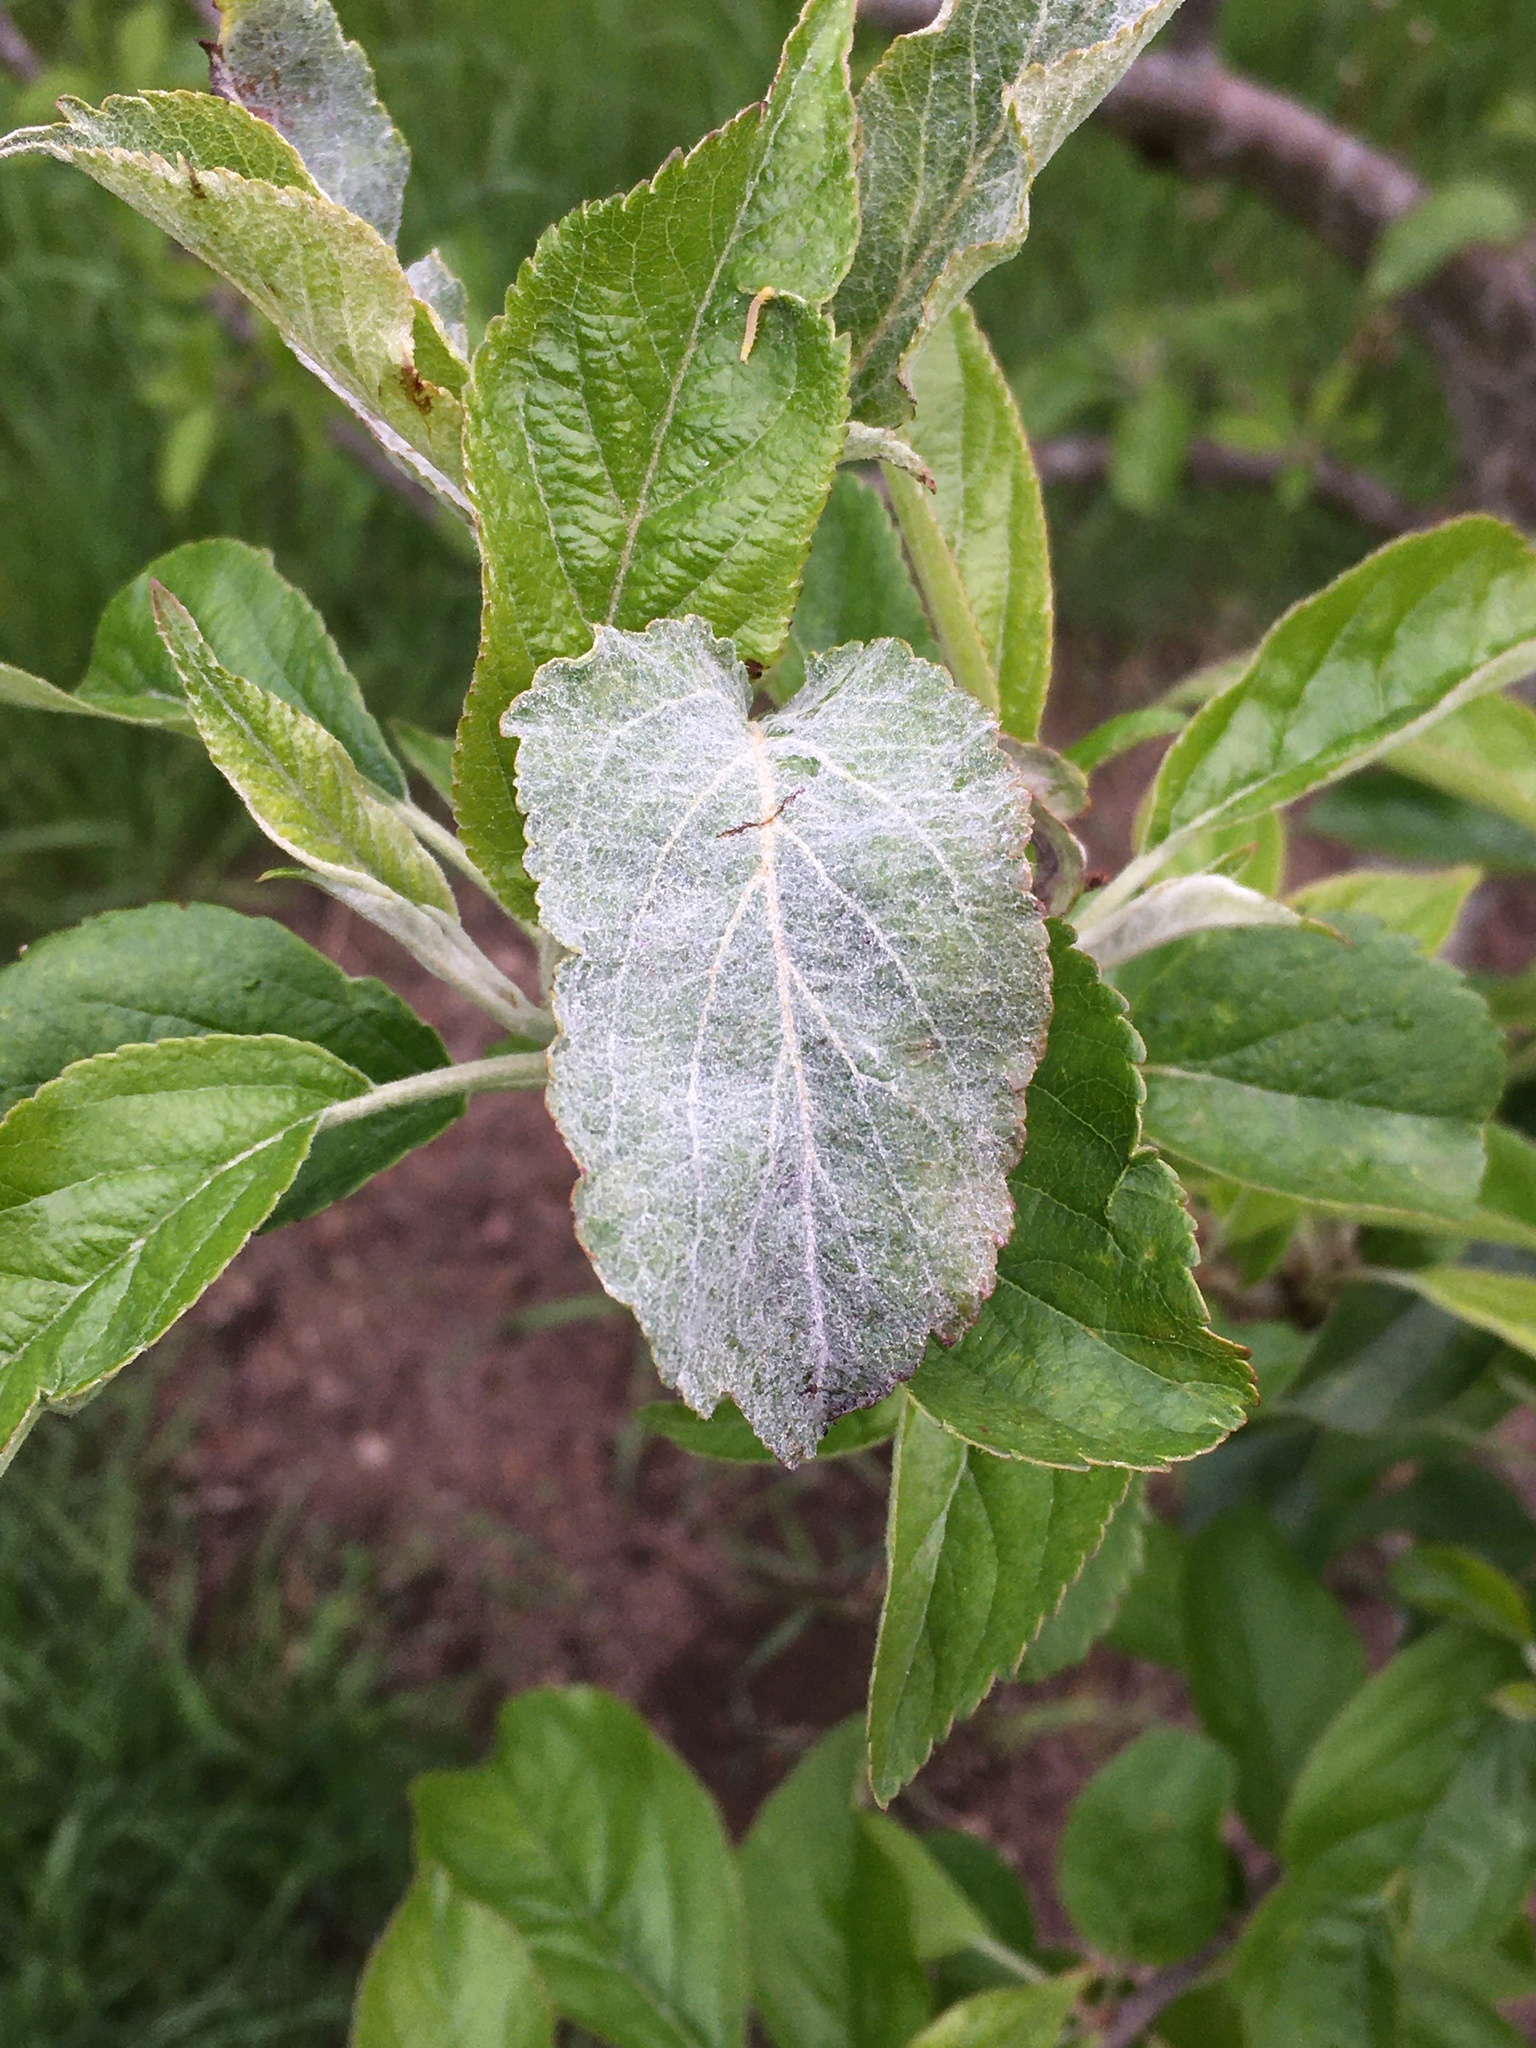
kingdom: Fungi
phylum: Ascomycota
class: Leotiomycetes
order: Helotiales
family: Erysiphaceae
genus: Podosphaera
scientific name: Podosphaera leucotricha
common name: Apple powdery mildew
